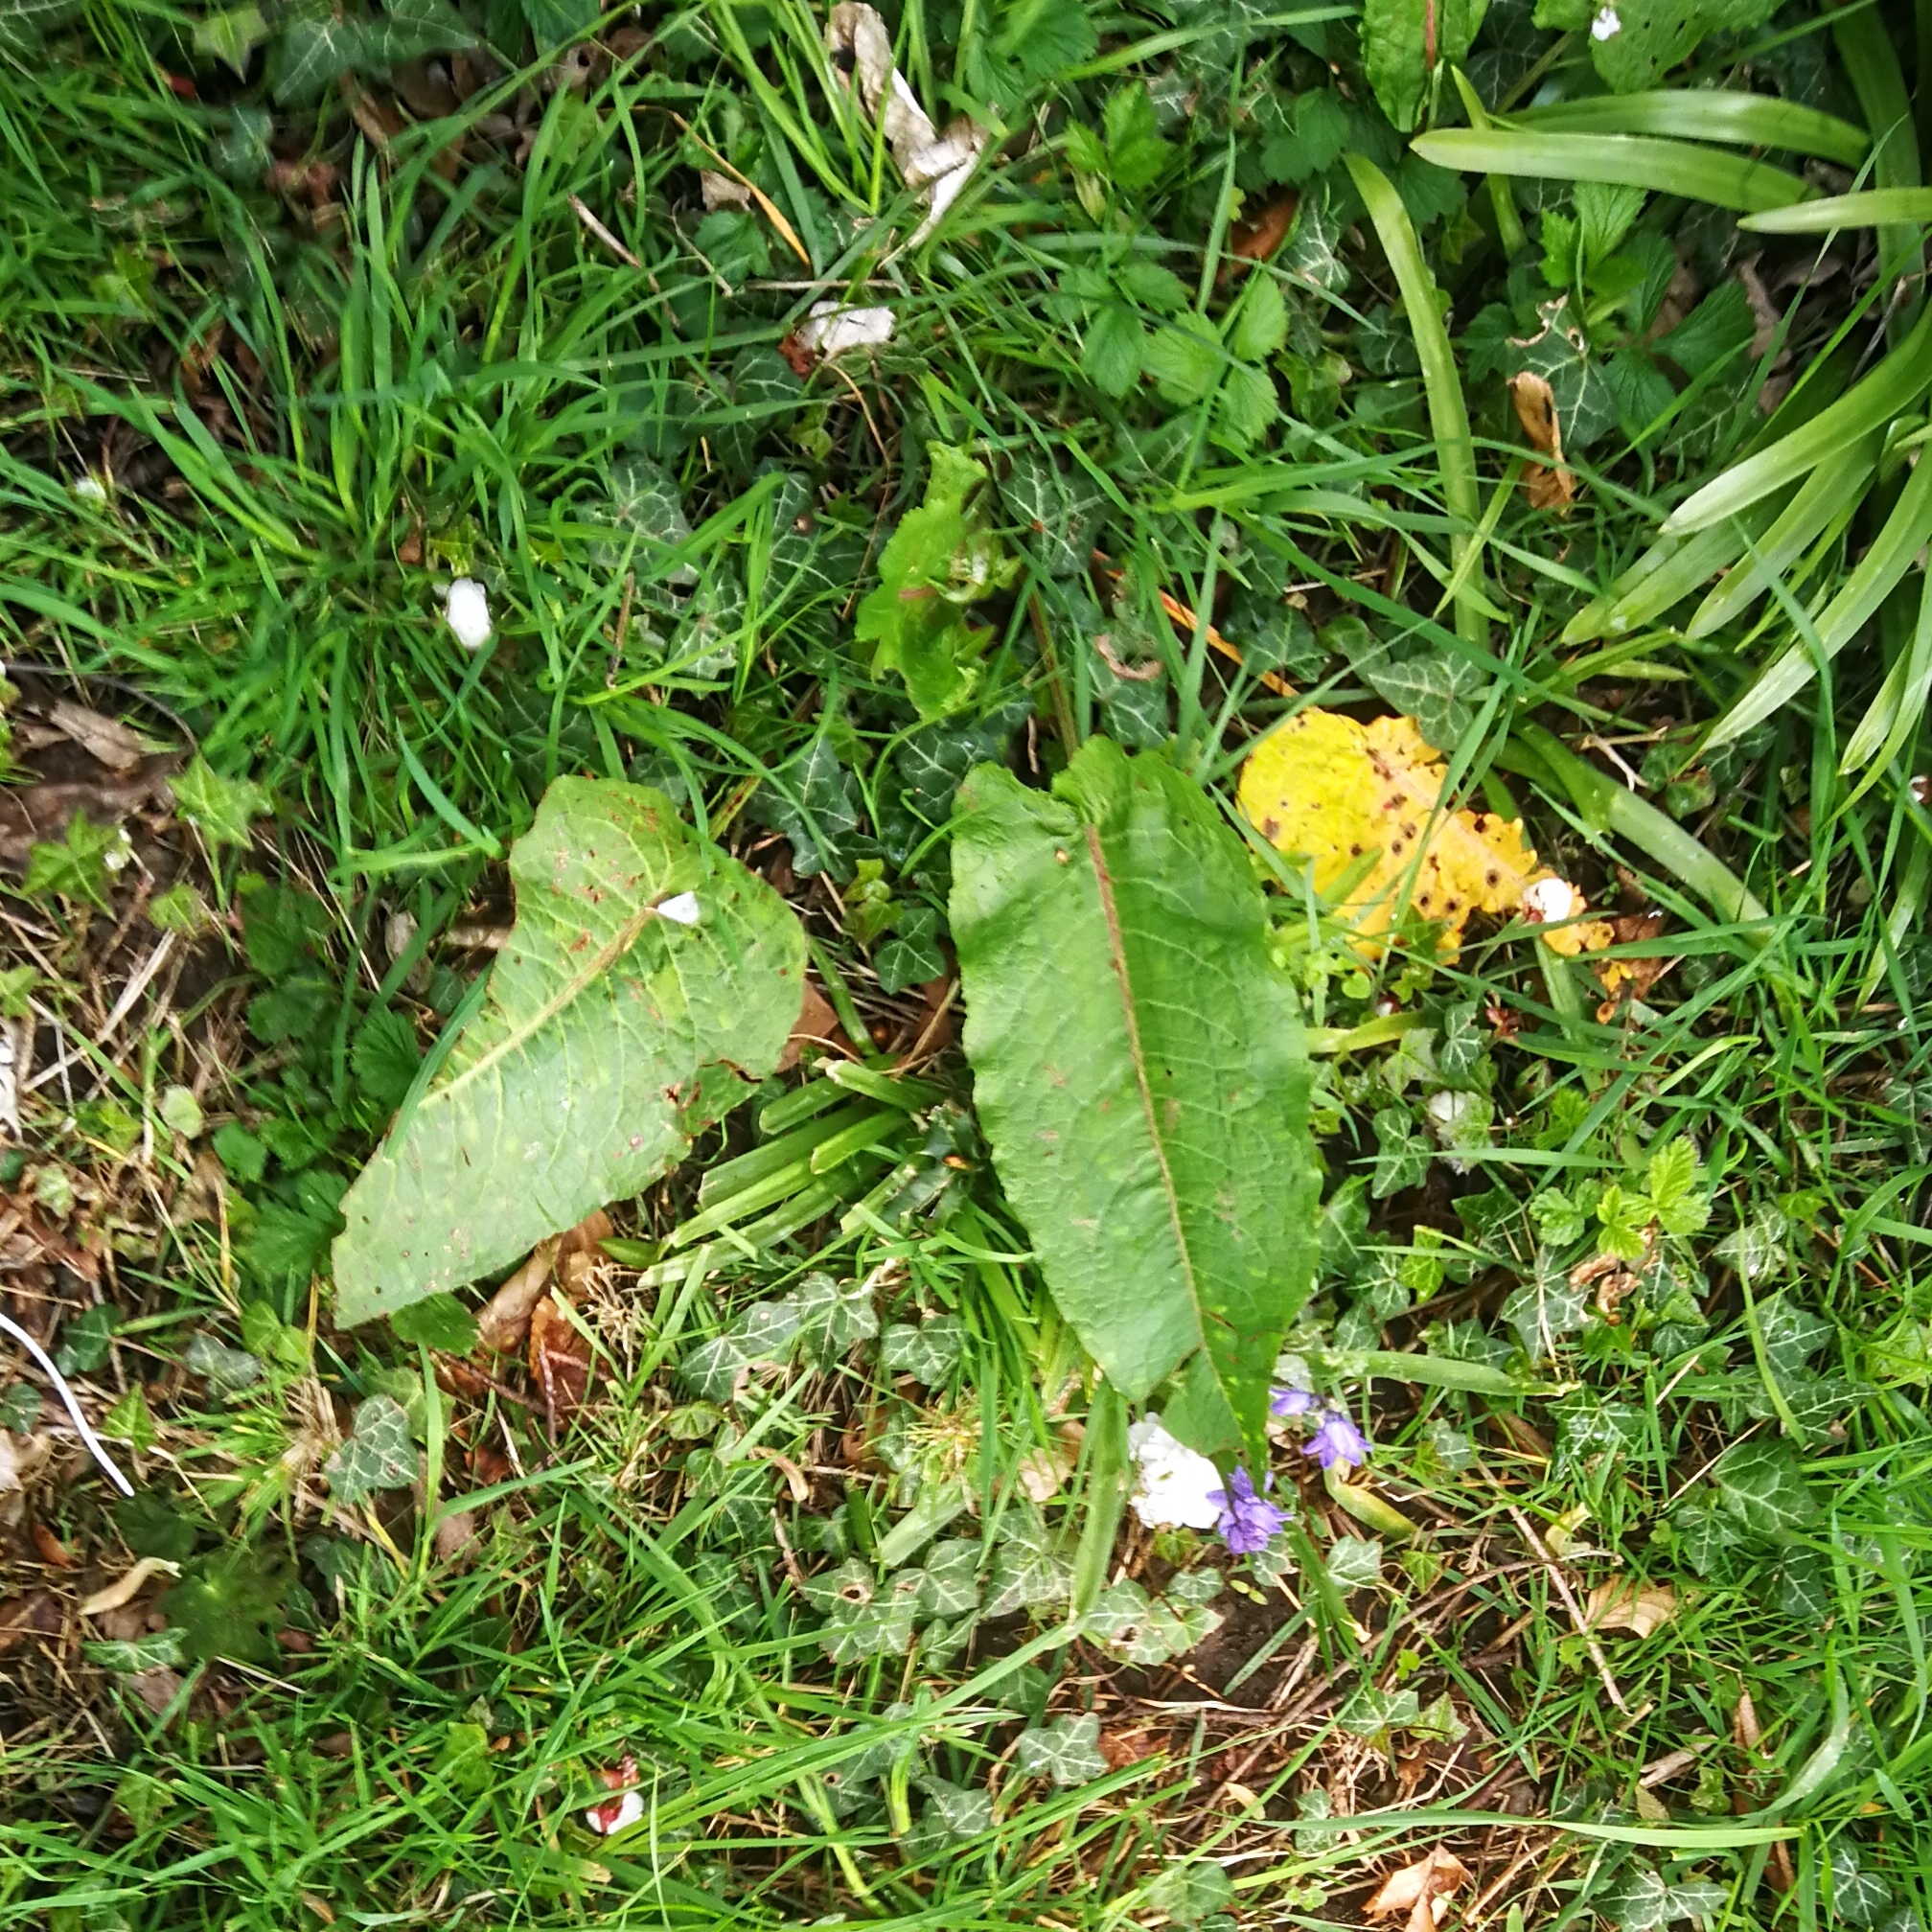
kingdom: Plantae
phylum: Tracheophyta
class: Magnoliopsida
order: Caryophyllales
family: Polygonaceae
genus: Rumex
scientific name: Rumex obtusifolius
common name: Bitter dock
